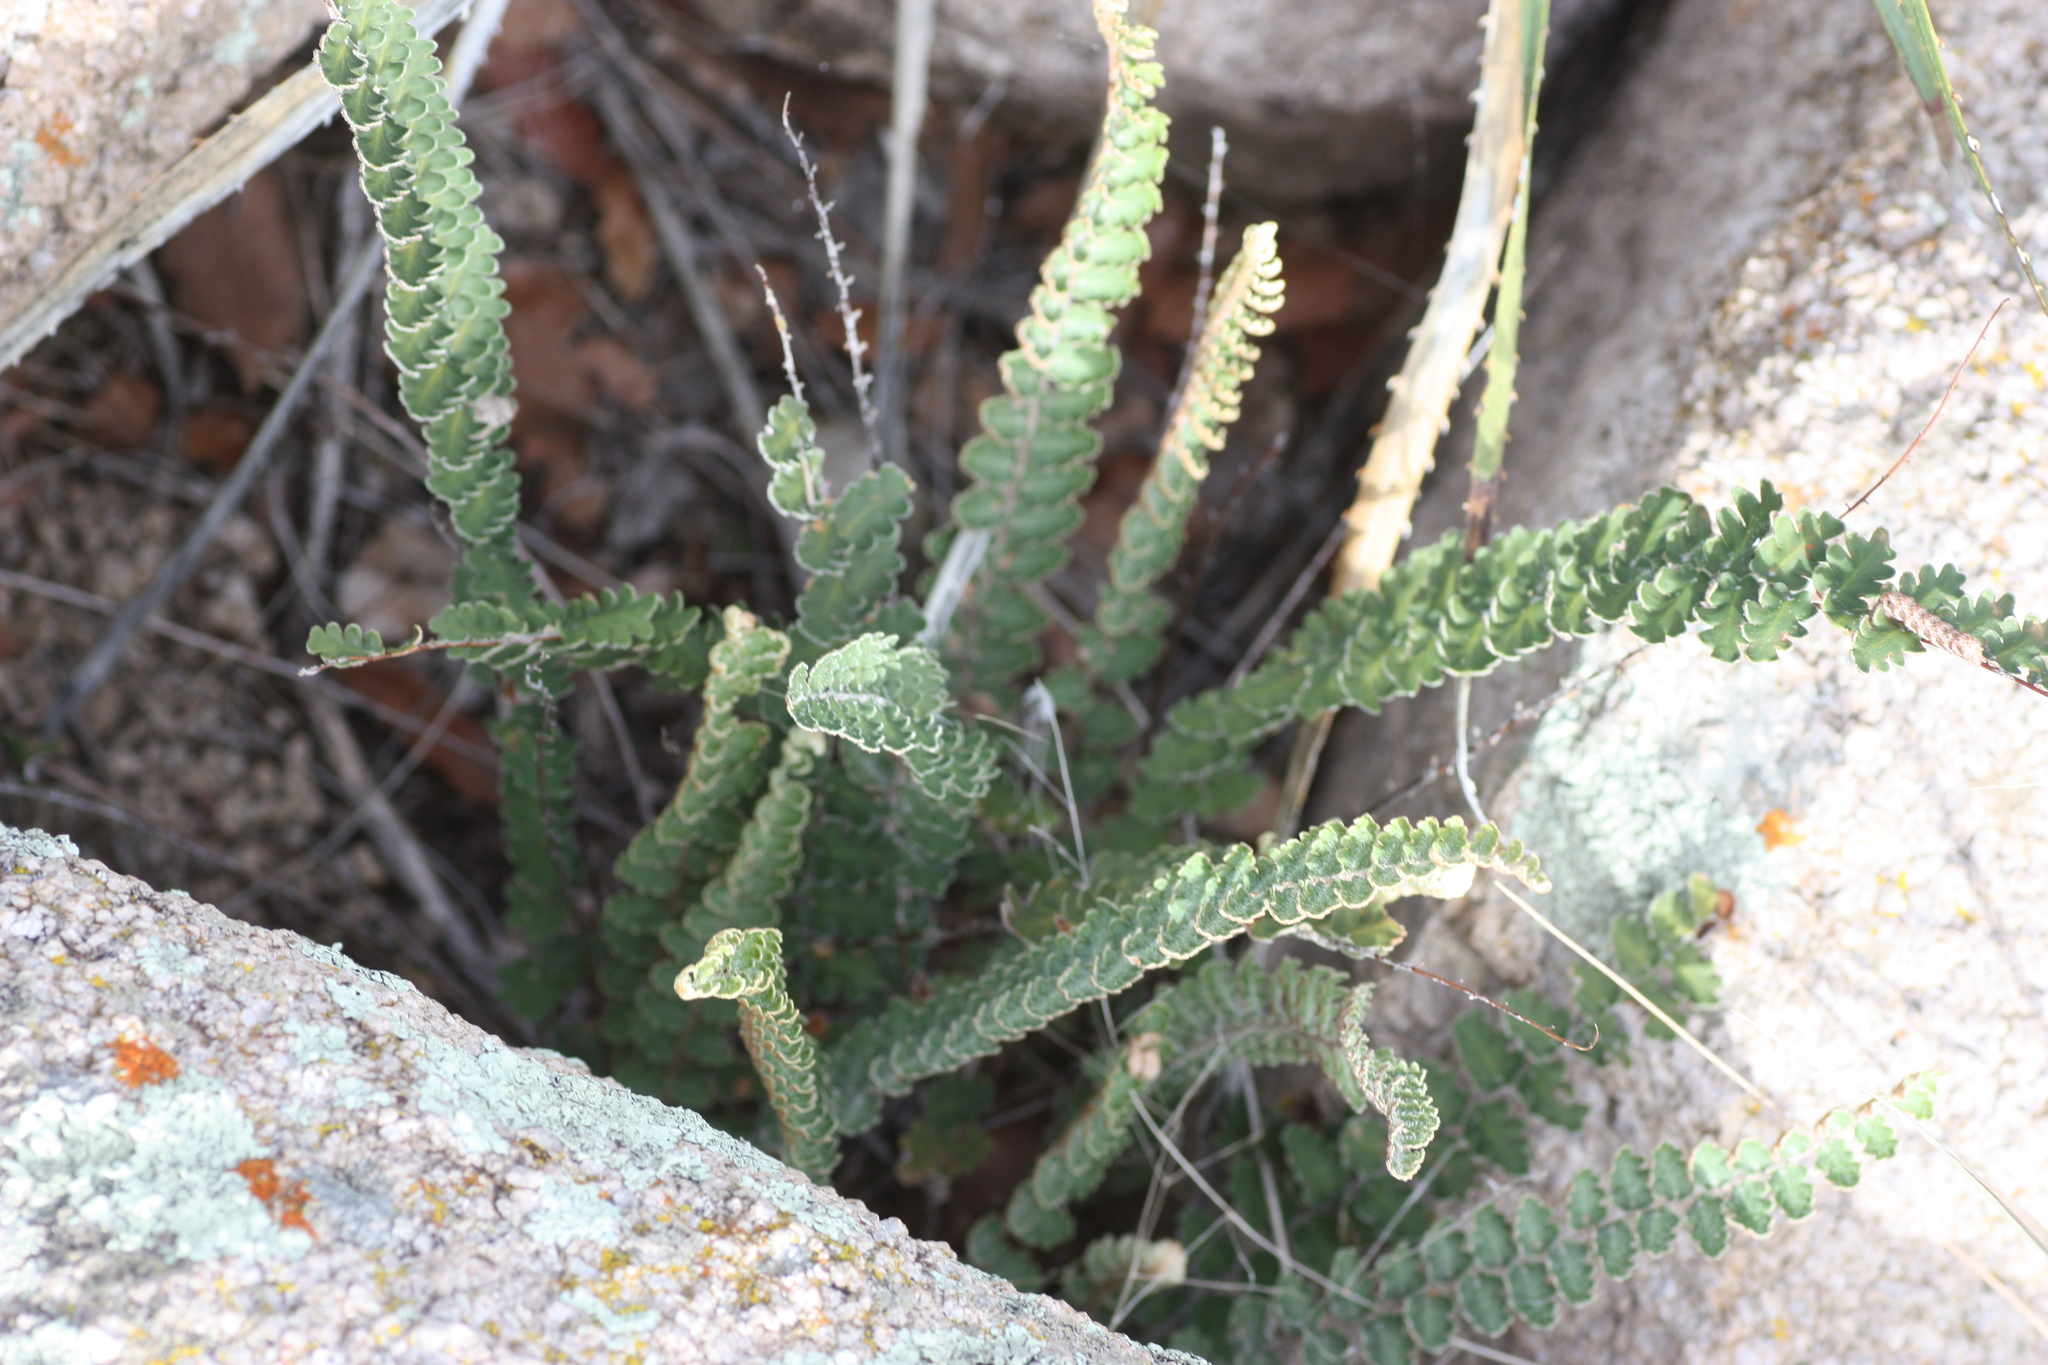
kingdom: Plantae
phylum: Tracheophyta
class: Polypodiopsida
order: Polypodiales
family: Pteridaceae
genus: Astrolepis
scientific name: Astrolepis sinuata
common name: Wavy scaly cloakfern
